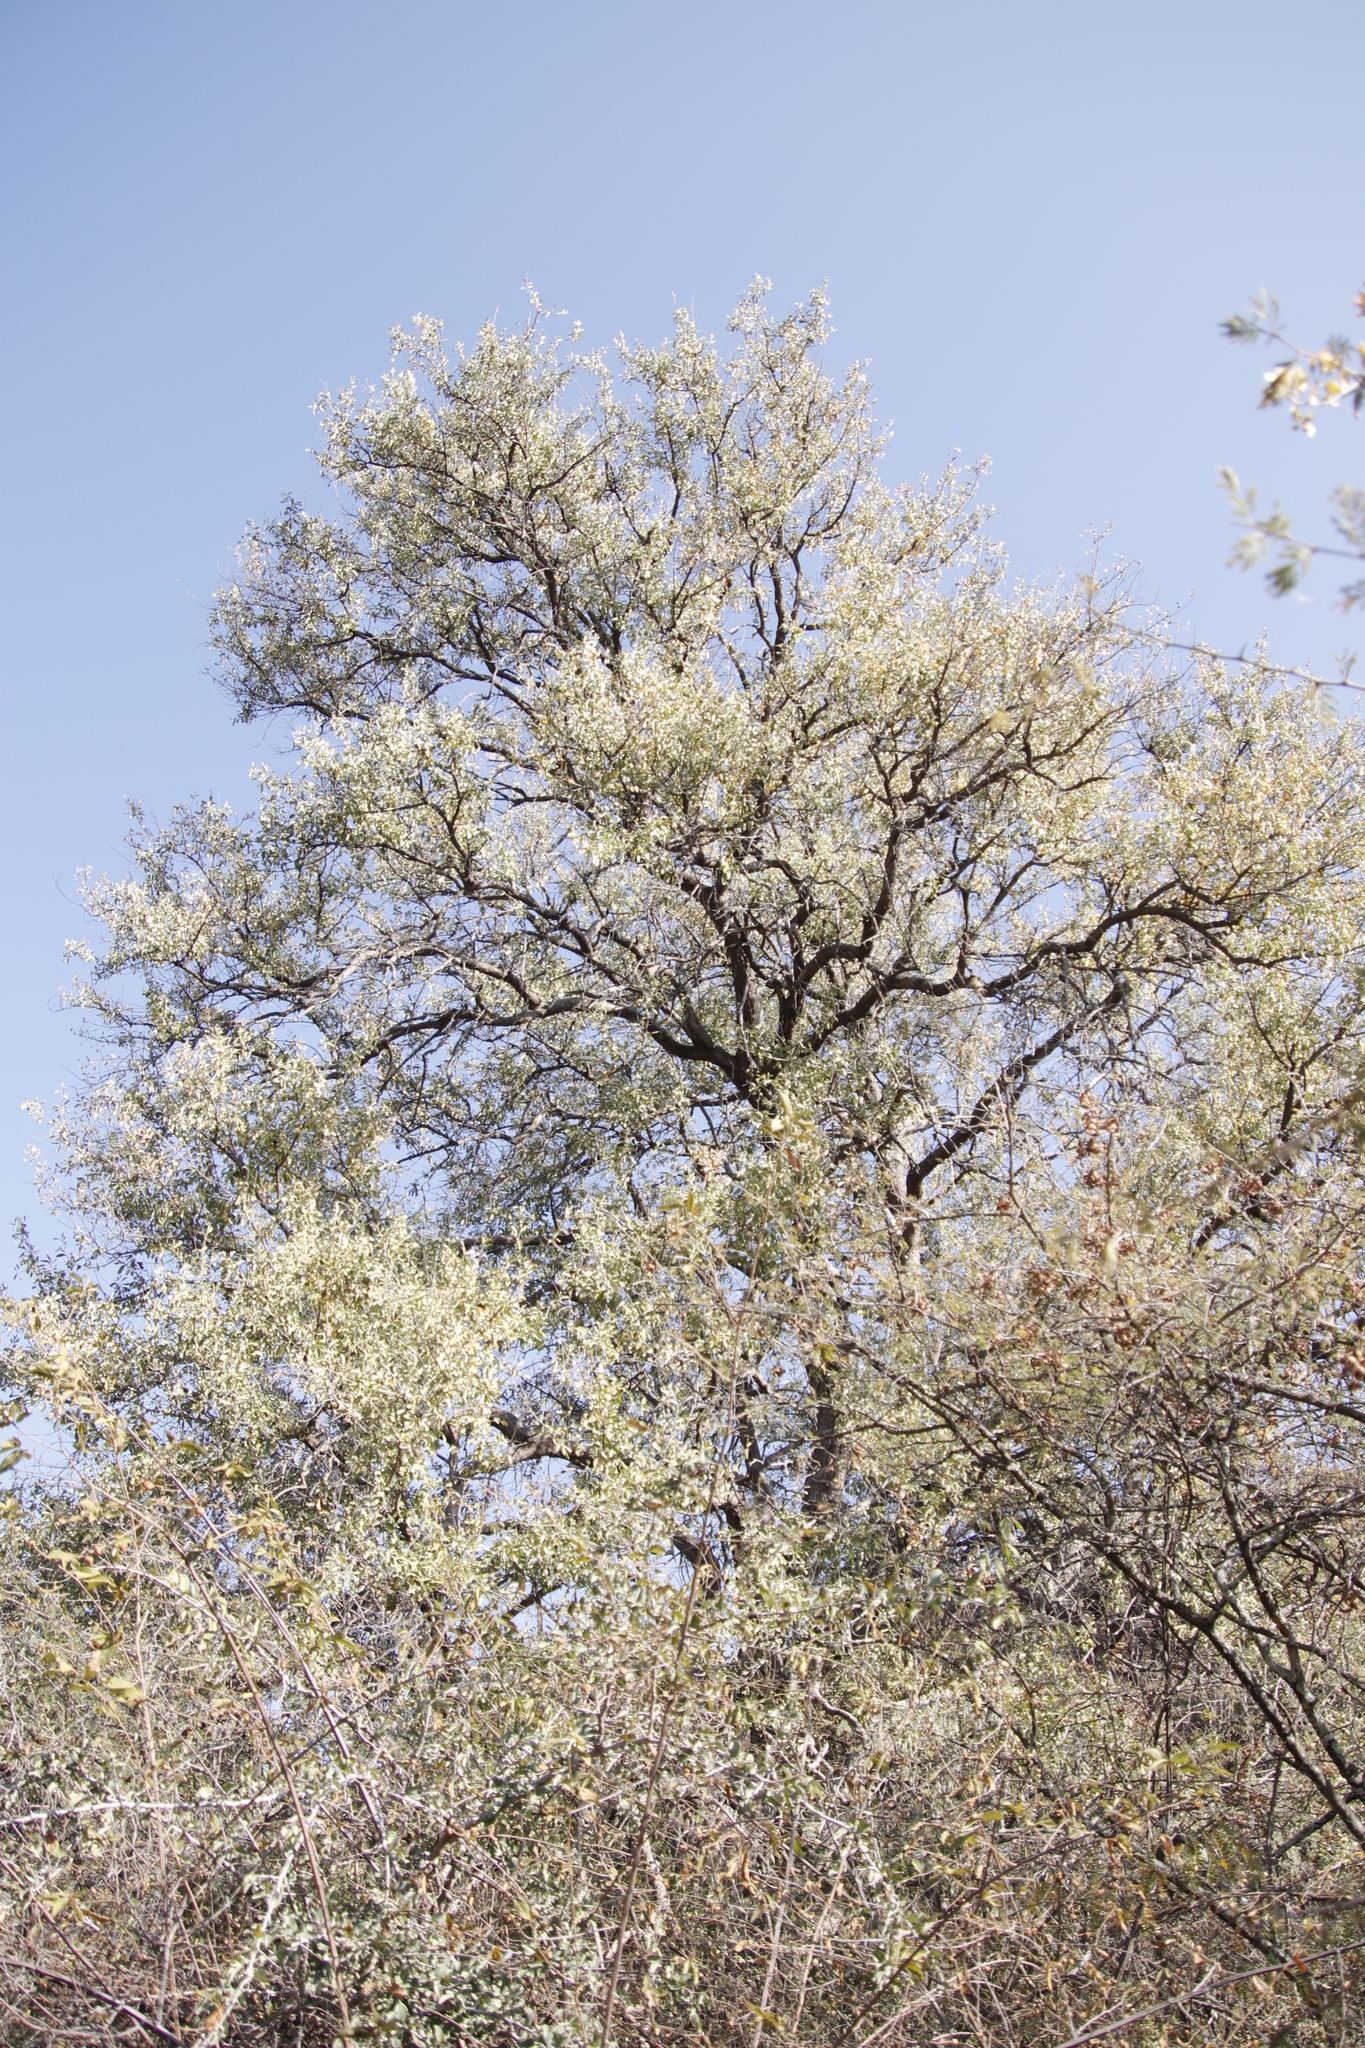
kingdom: Plantae
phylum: Tracheophyta
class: Magnoliopsida
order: Myrtales
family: Combretaceae
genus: Combretum
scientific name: Combretum imberbe
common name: Leadwood
